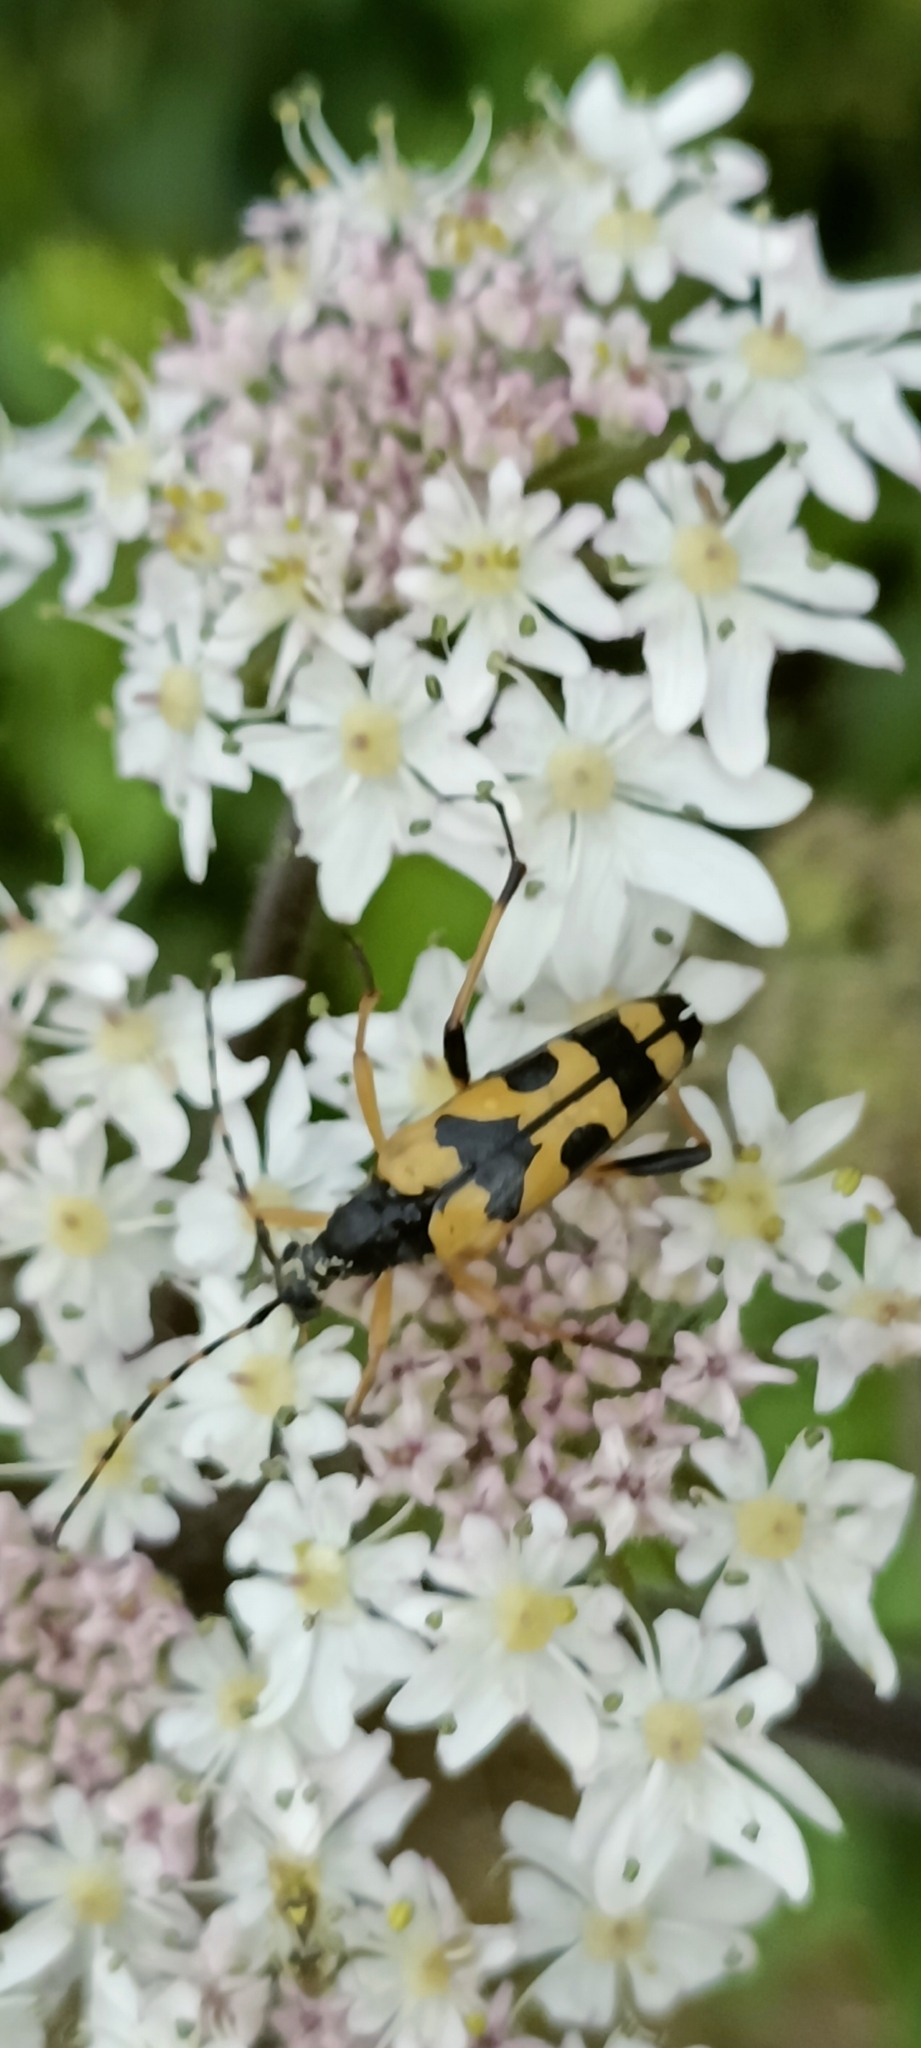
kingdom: Animalia
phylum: Arthropoda
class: Insecta
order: Coleoptera
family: Cerambycidae
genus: Rutpela
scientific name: Rutpela maculata
